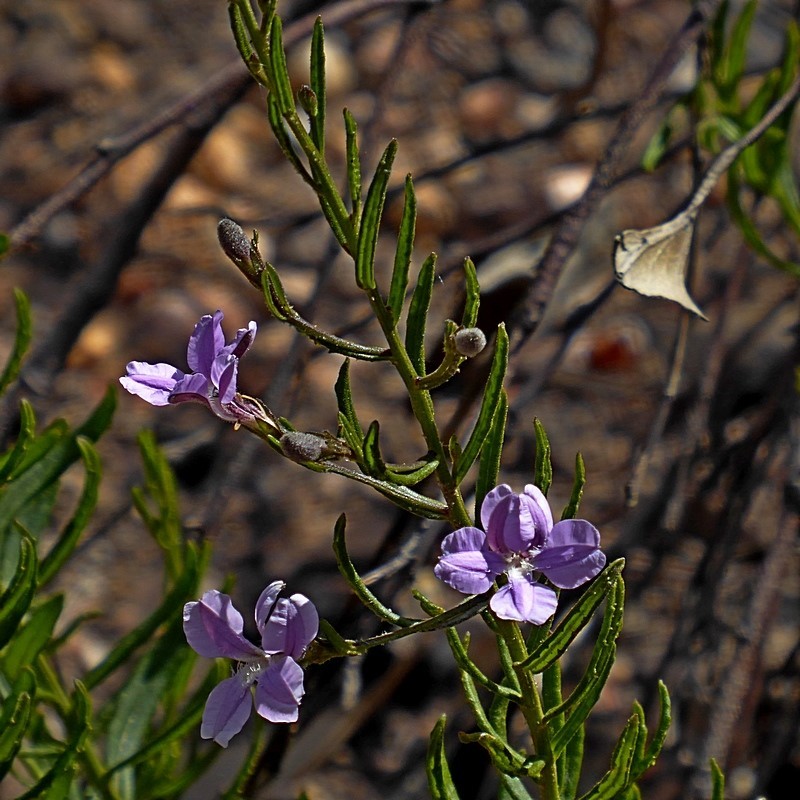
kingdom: Plantae
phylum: Tracheophyta
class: Magnoliopsida
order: Asterales
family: Goodeniaceae
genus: Goodenia
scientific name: Goodenia barbata
